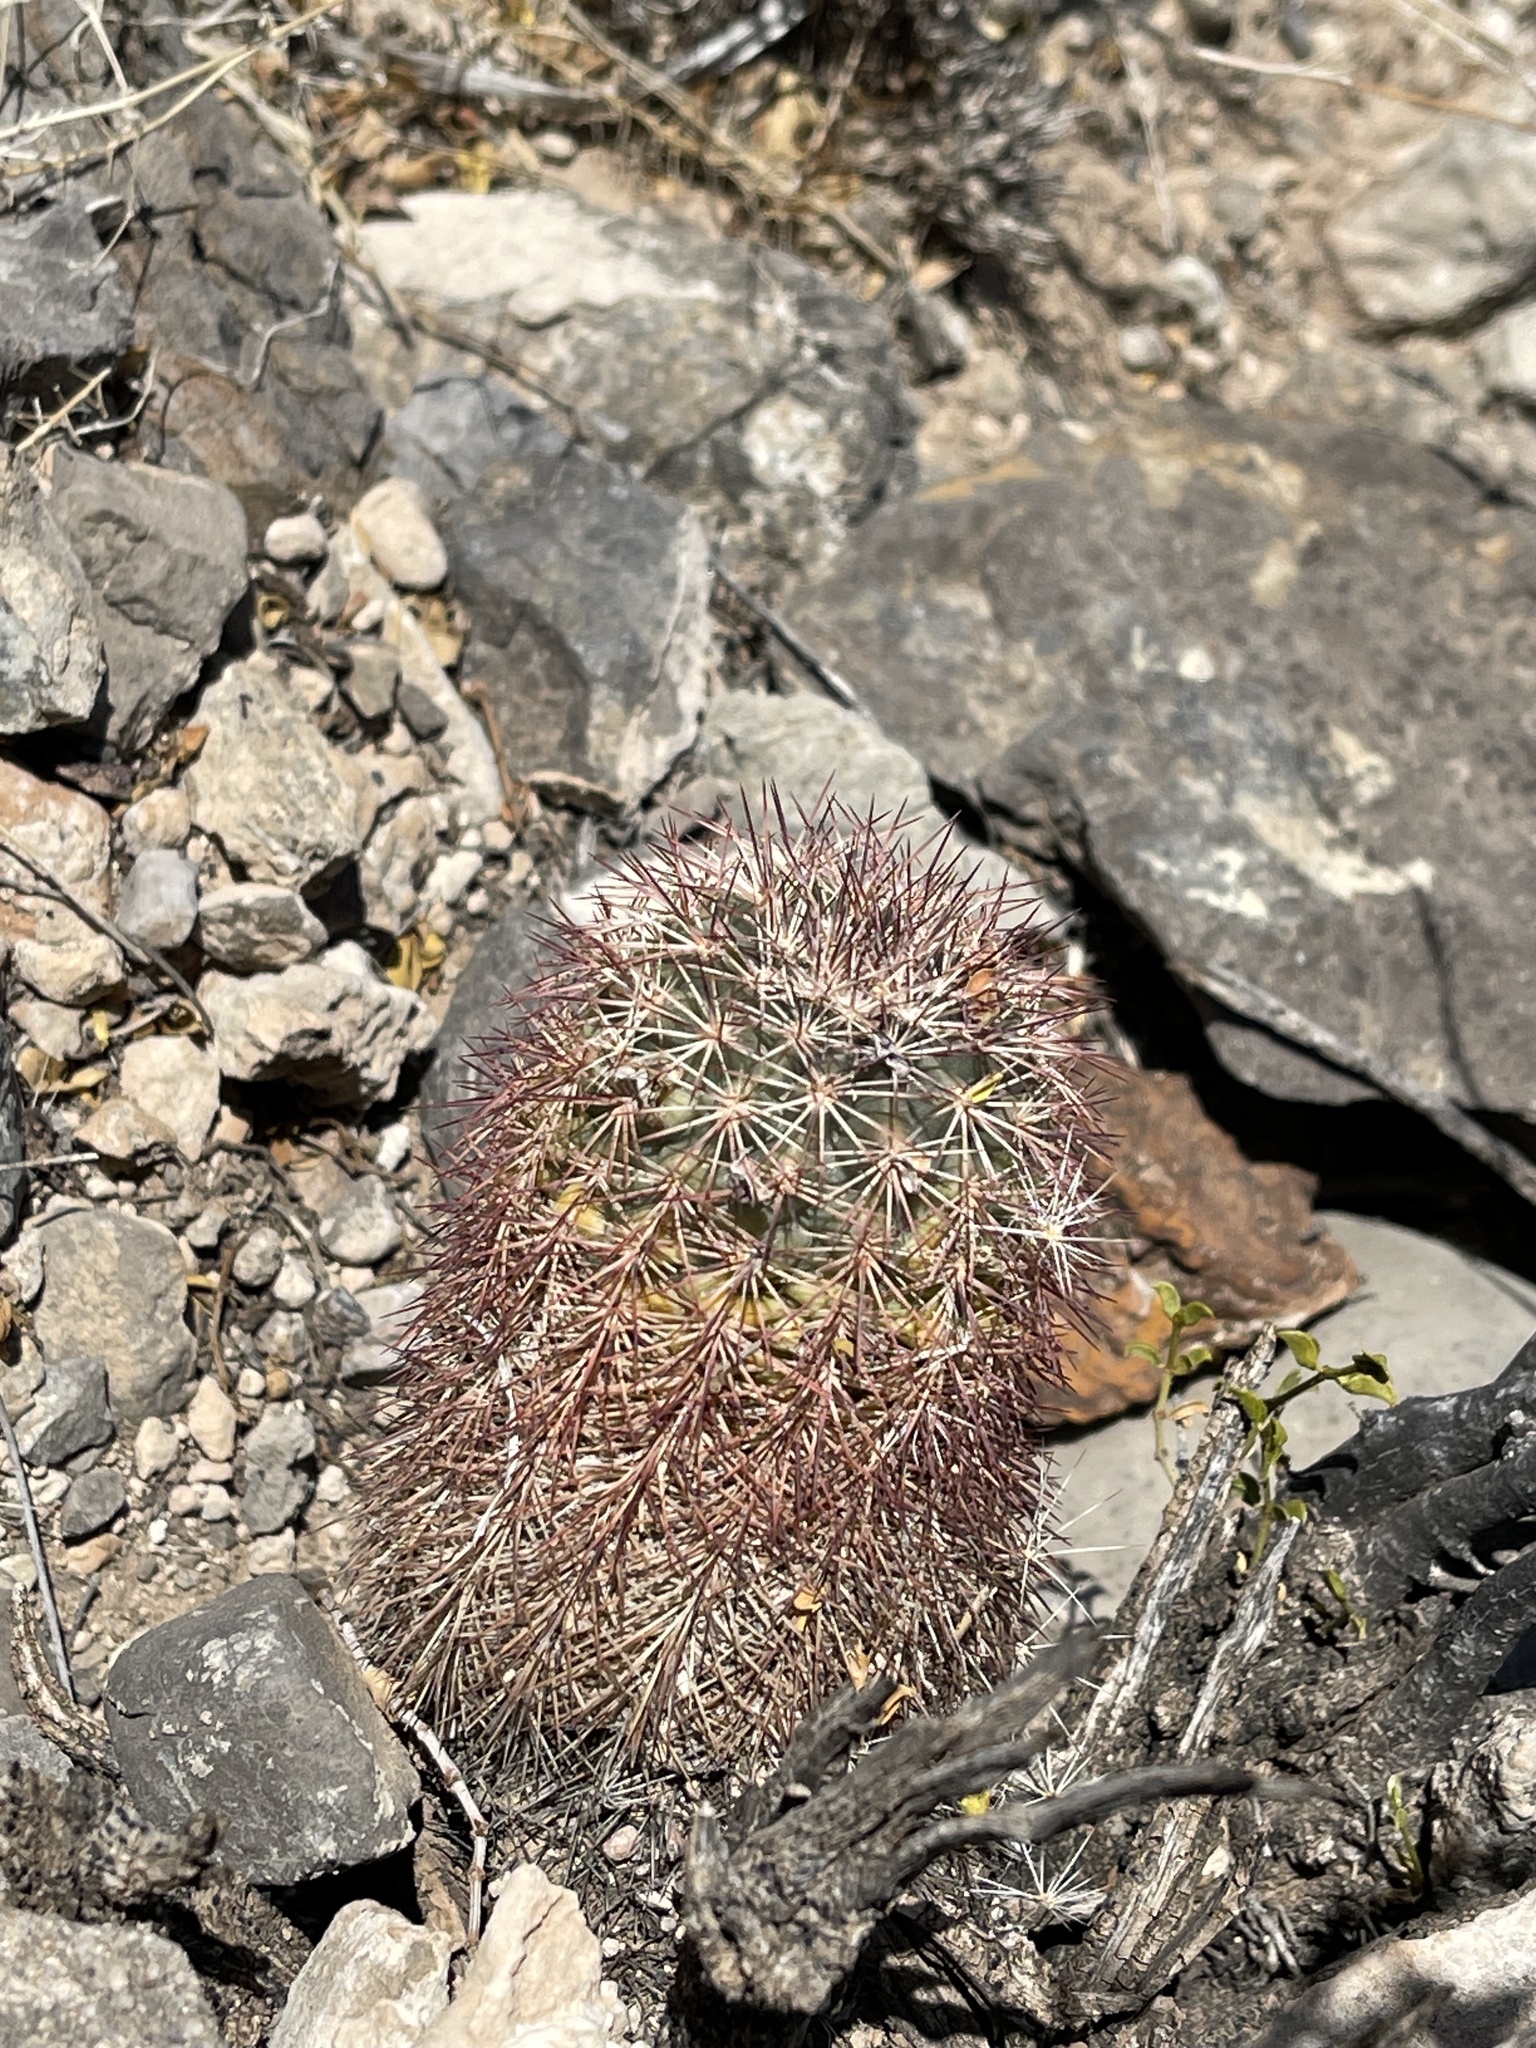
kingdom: Plantae
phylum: Tracheophyta
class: Magnoliopsida
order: Caryophyllales
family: Cactaceae
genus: Echinocereus
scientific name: Echinocereus roetteri
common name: Lloyd's hedgehog cactus
